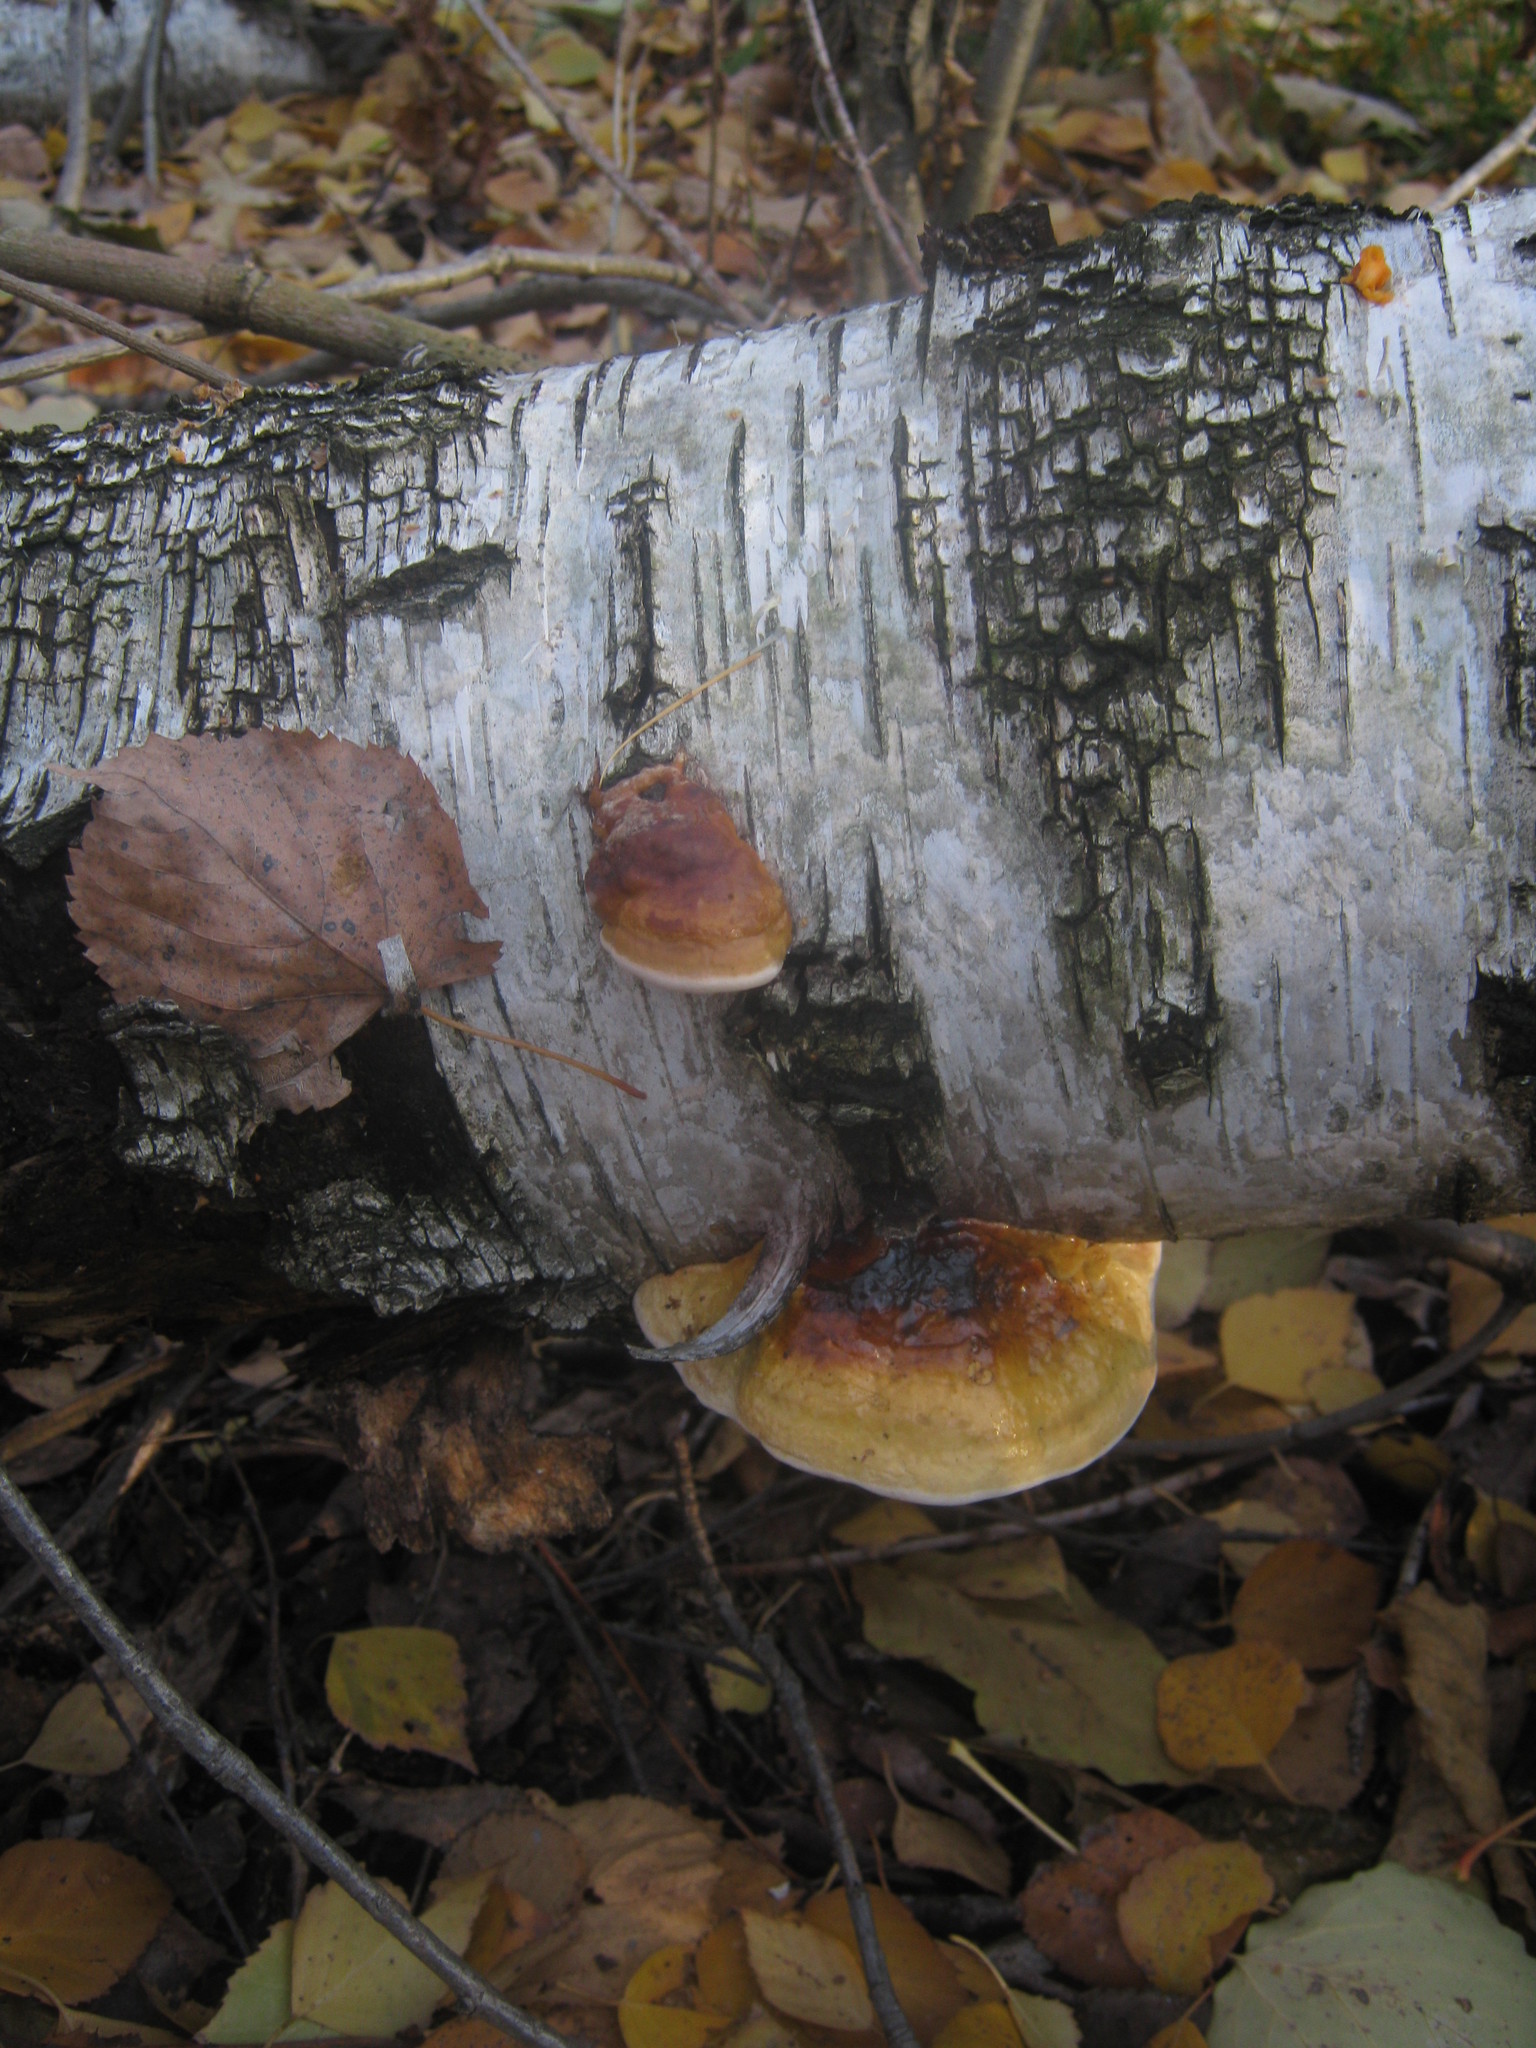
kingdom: Fungi
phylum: Basidiomycota
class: Agaricomycetes
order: Polyporales
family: Fomitopsidaceae
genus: Fomitopsis
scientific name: Fomitopsis pinicola
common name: Red-belted bracket
